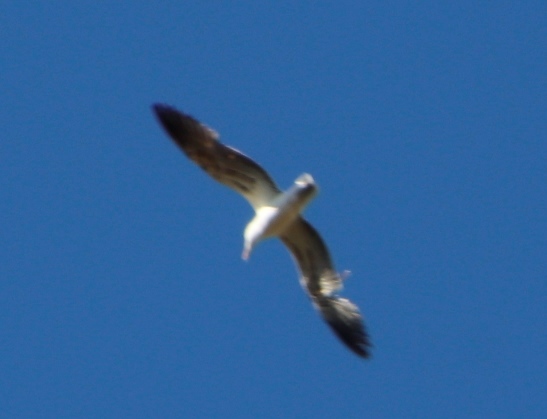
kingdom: Animalia
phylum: Chordata
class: Aves
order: Charadriiformes
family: Laridae
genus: Larus
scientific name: Larus dominicanus
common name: Kelp gull
